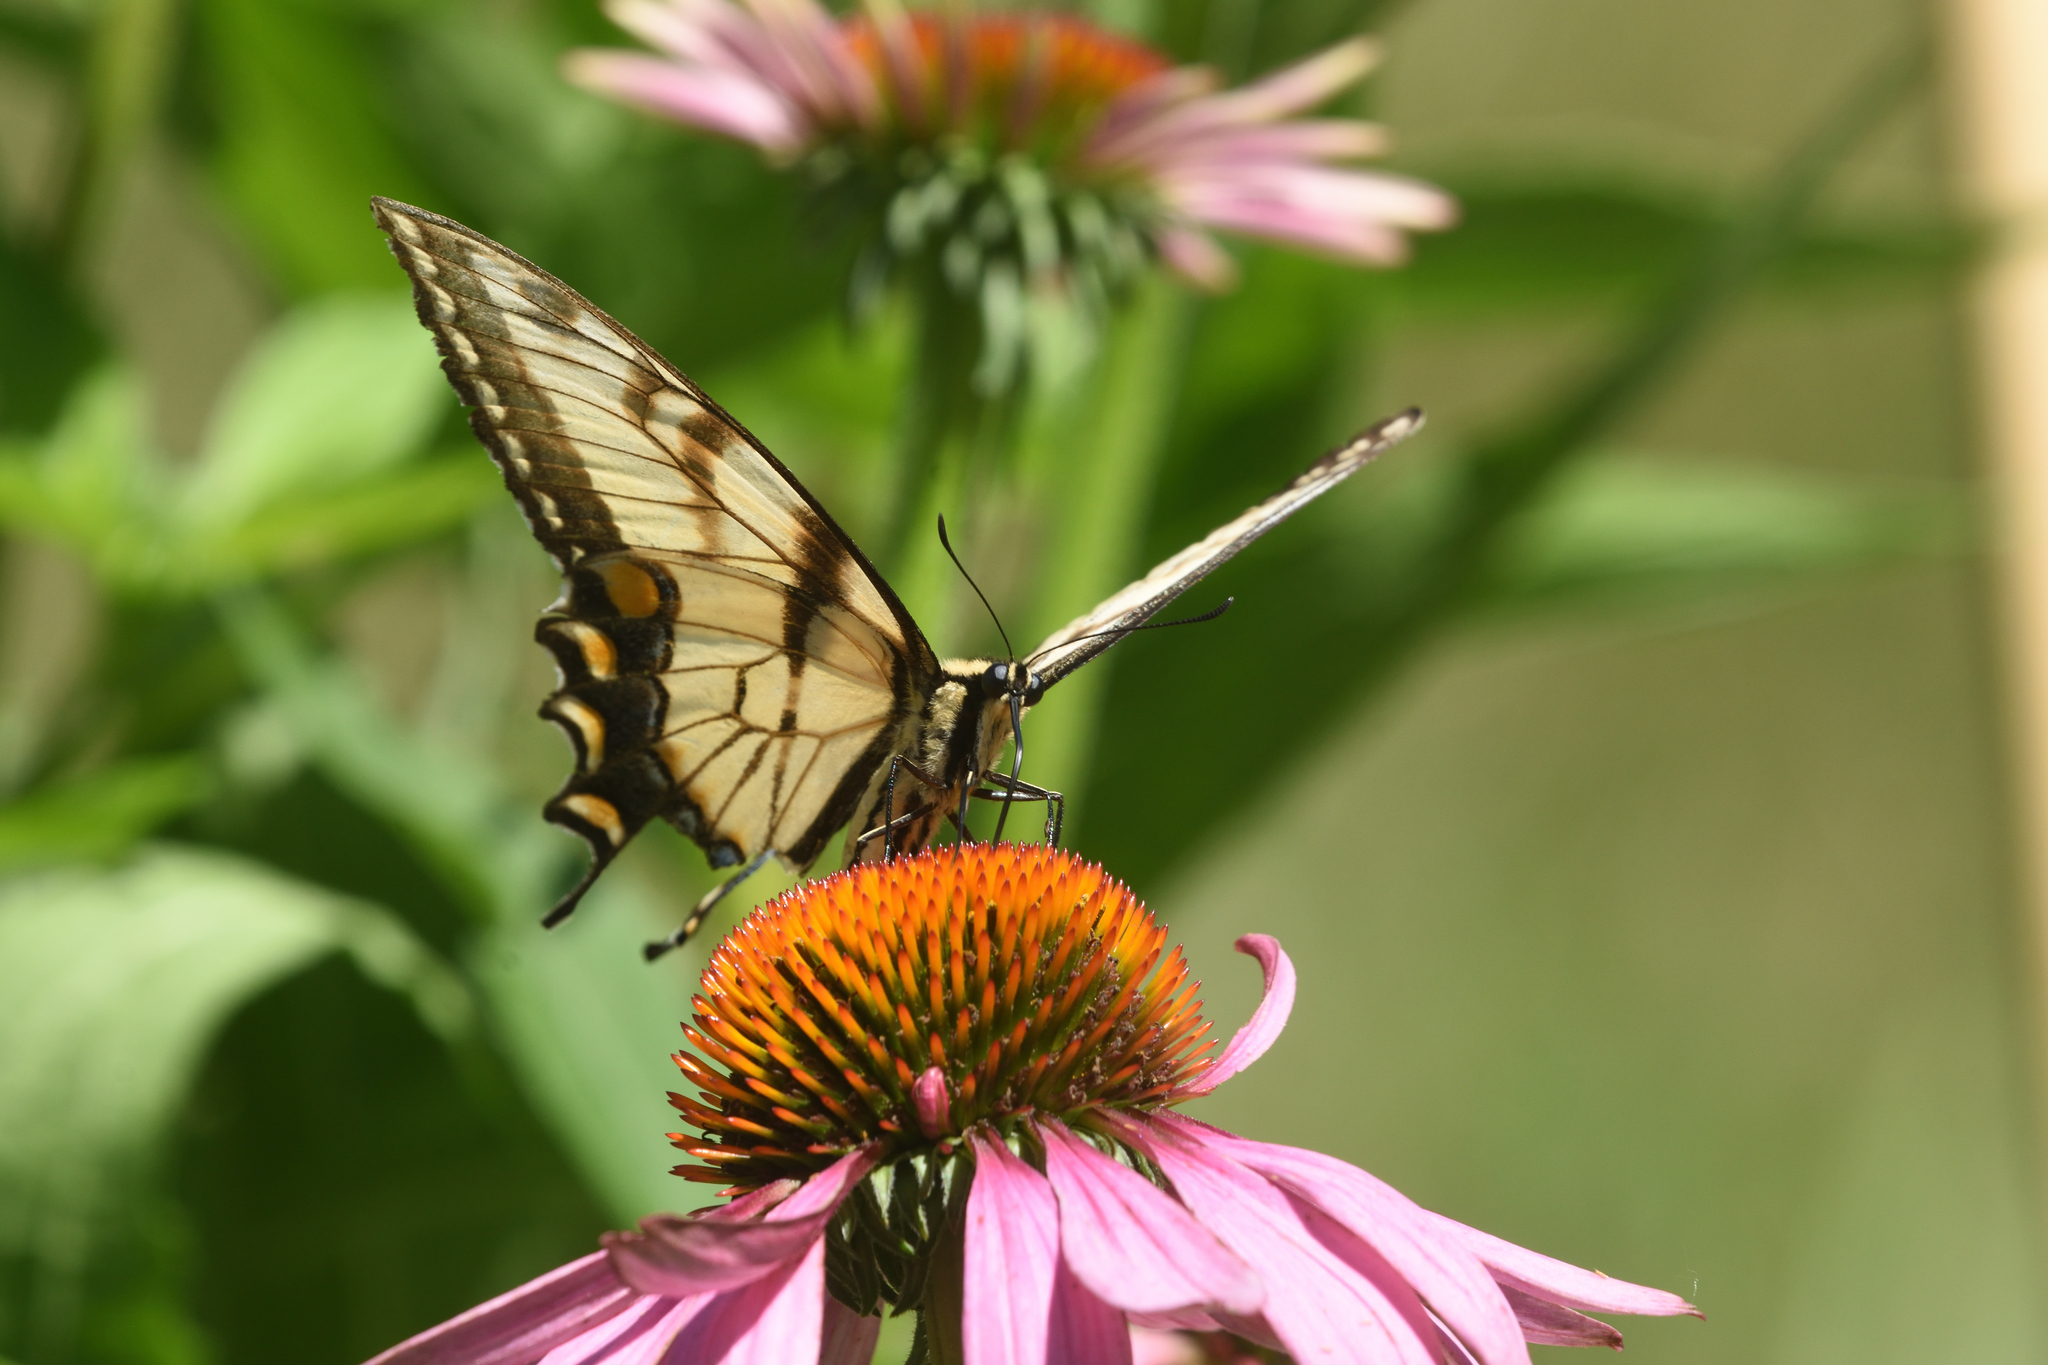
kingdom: Animalia
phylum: Arthropoda
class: Insecta
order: Lepidoptera
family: Papilionidae
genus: Papilio
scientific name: Papilio glaucus
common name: Tiger swallowtail
